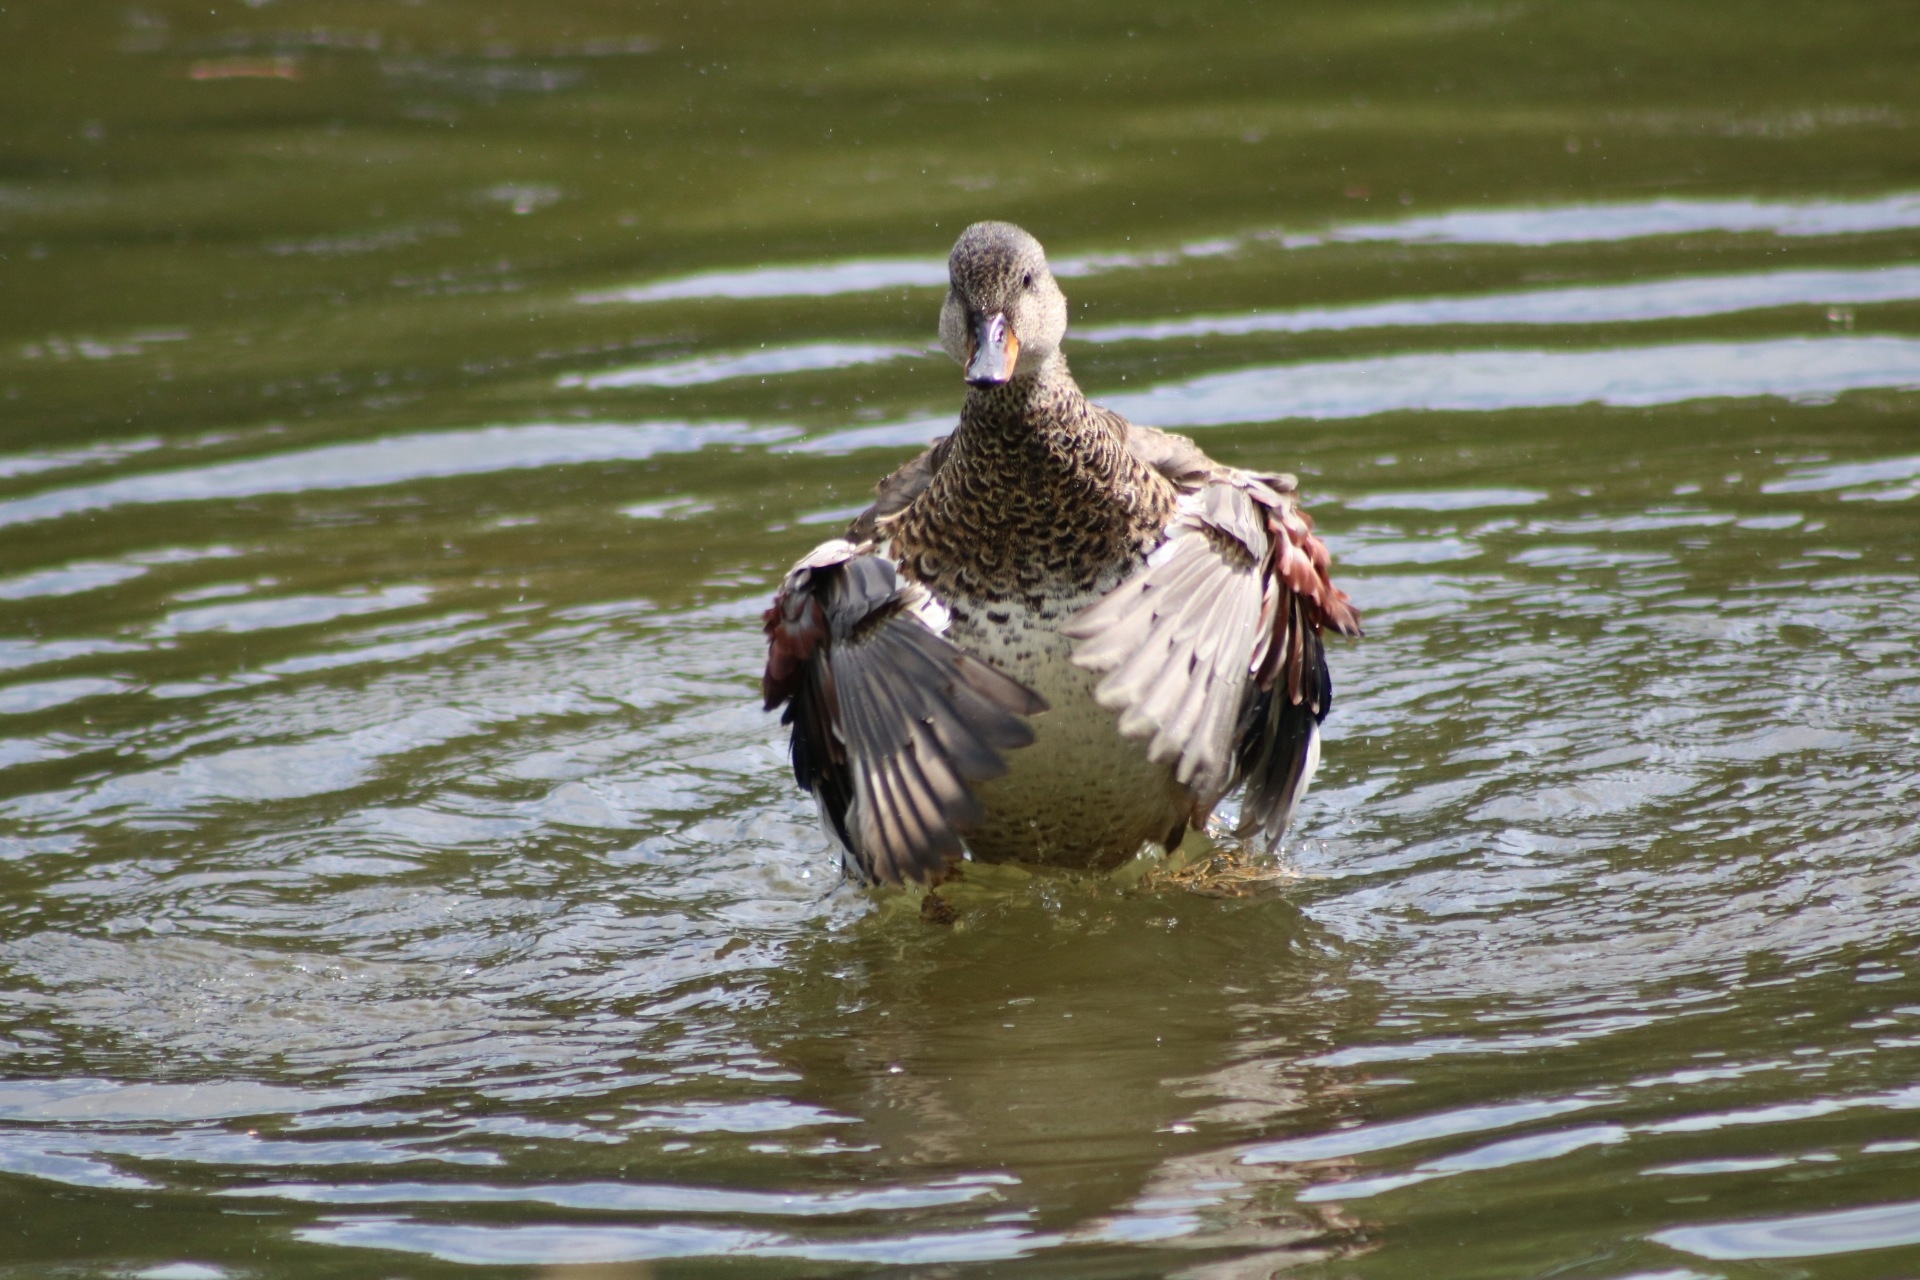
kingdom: Animalia
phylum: Chordata
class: Aves
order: Anseriformes
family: Anatidae
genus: Mareca
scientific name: Mareca strepera
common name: Gadwall
